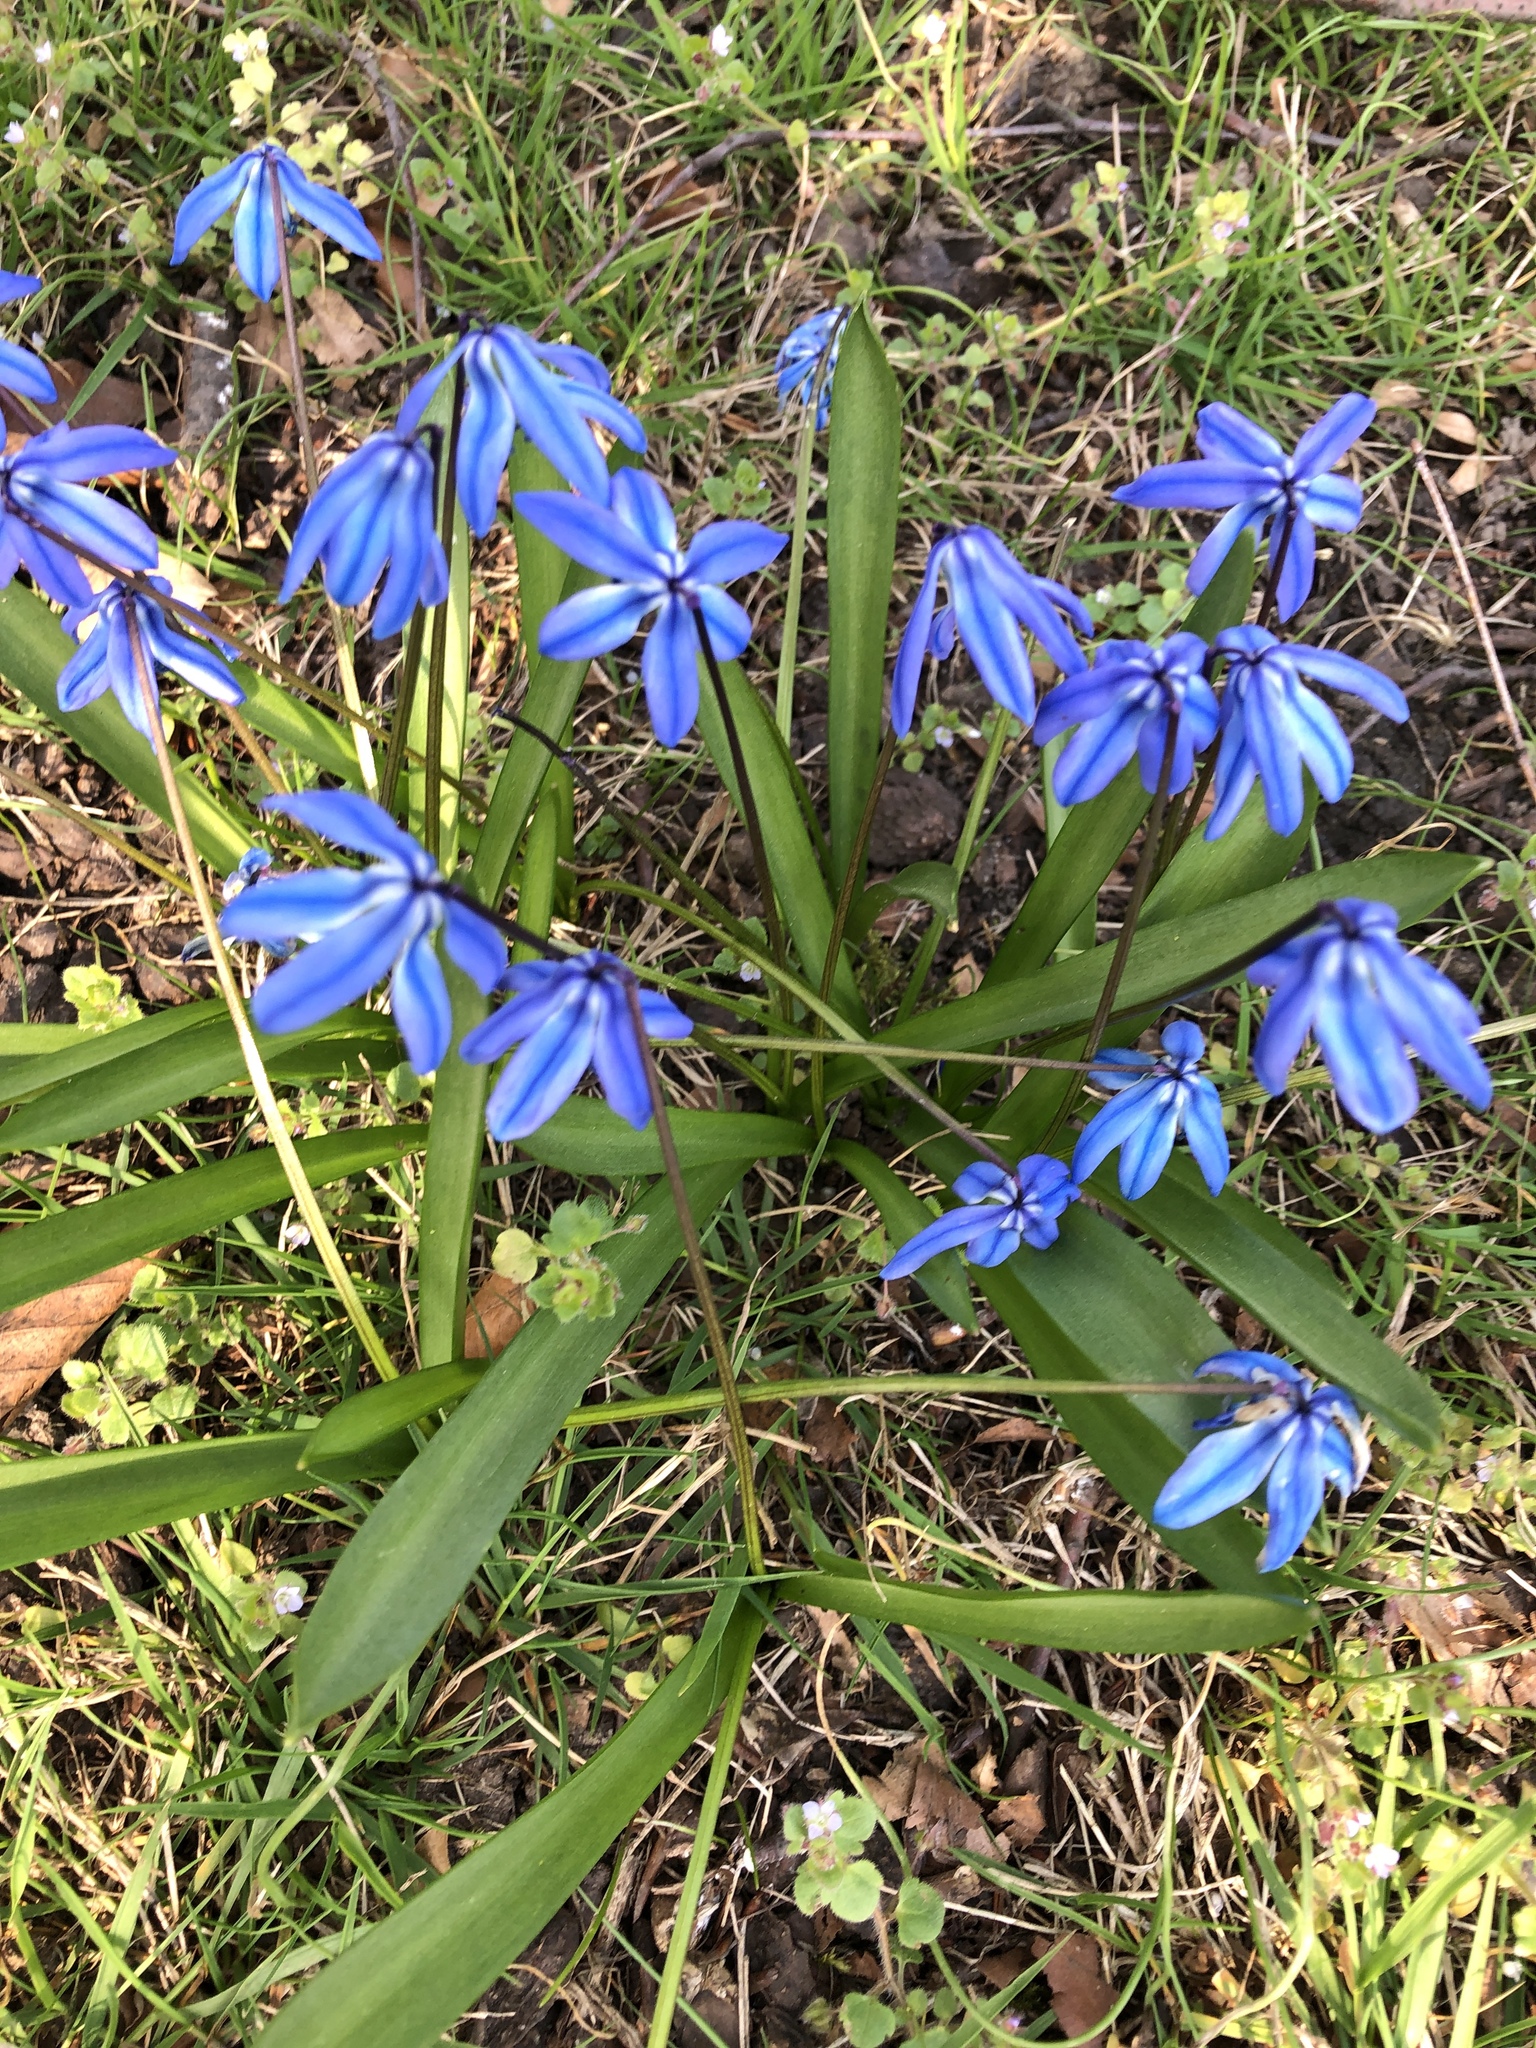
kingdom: Plantae
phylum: Tracheophyta
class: Liliopsida
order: Asparagales
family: Asparagaceae
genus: Scilla
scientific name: Scilla siberica
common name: Siberian squill
